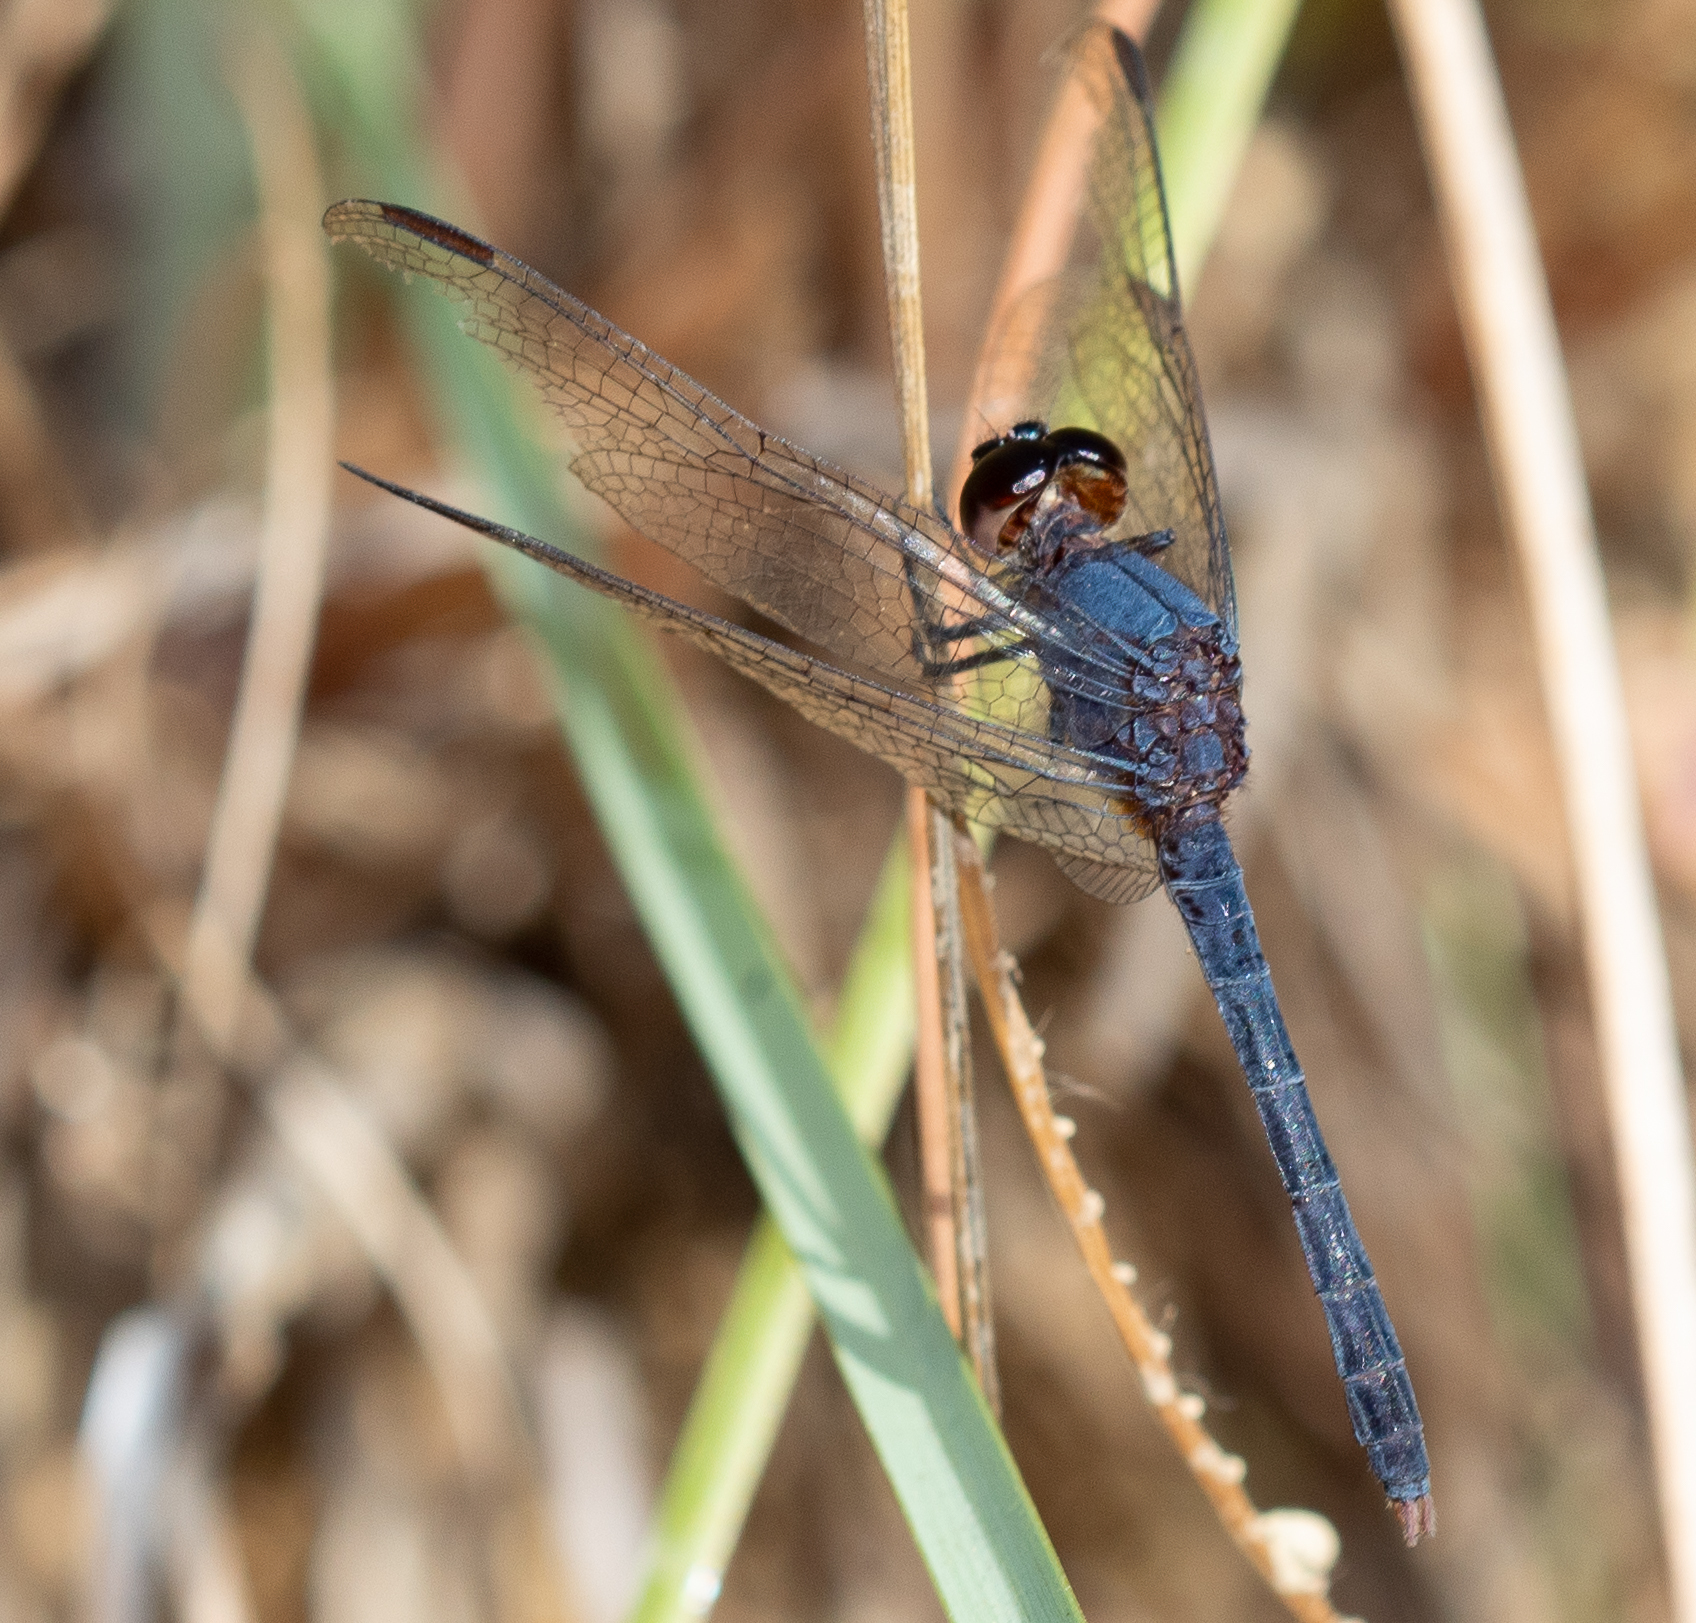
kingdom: Animalia
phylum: Arthropoda
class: Insecta
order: Odonata
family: Libellulidae
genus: Erythrodiplax
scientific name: Erythrodiplax juliana
